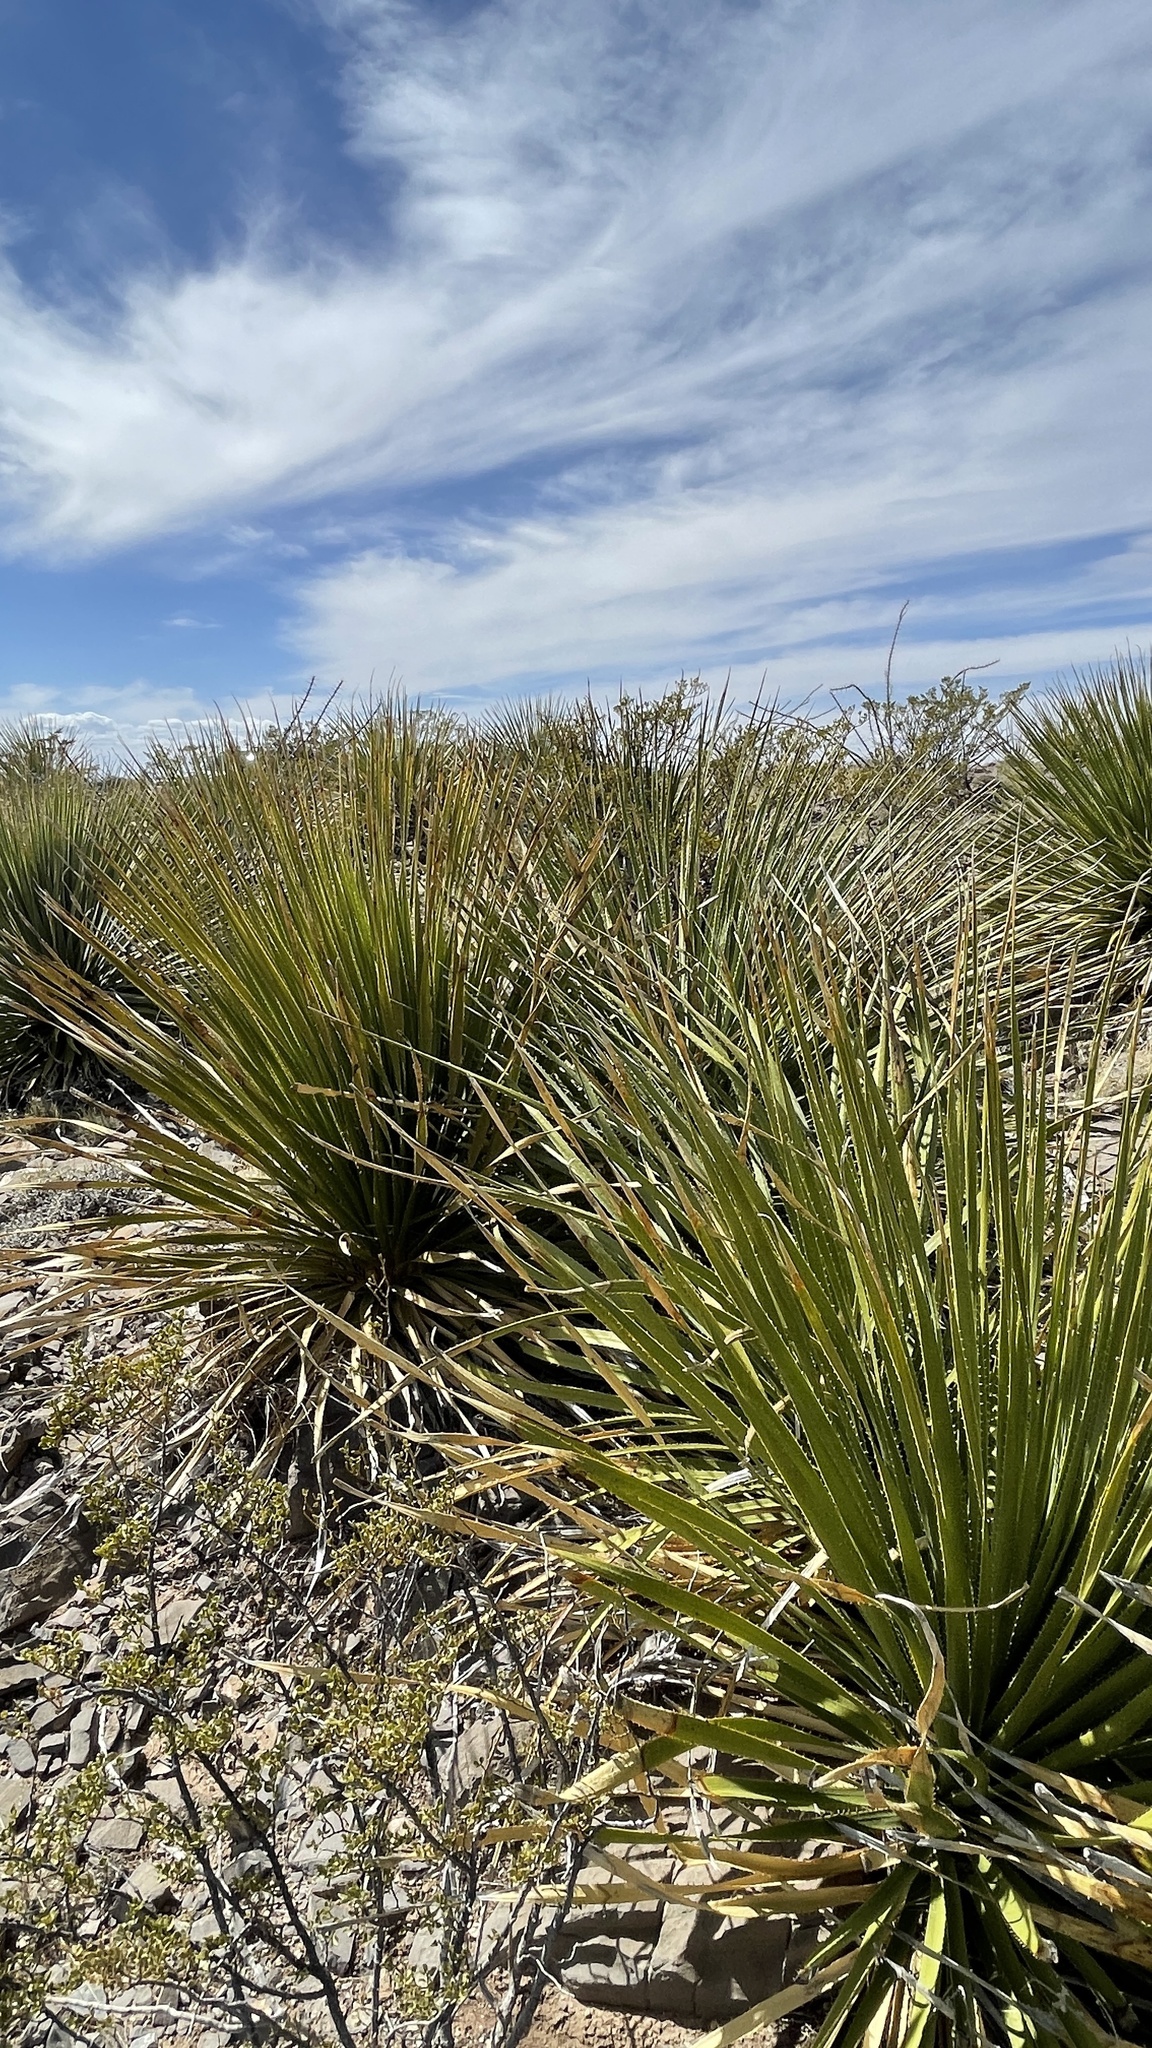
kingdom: Plantae
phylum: Tracheophyta
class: Liliopsida
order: Asparagales
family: Asparagaceae
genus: Dasylirion
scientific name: Dasylirion wheeleri
